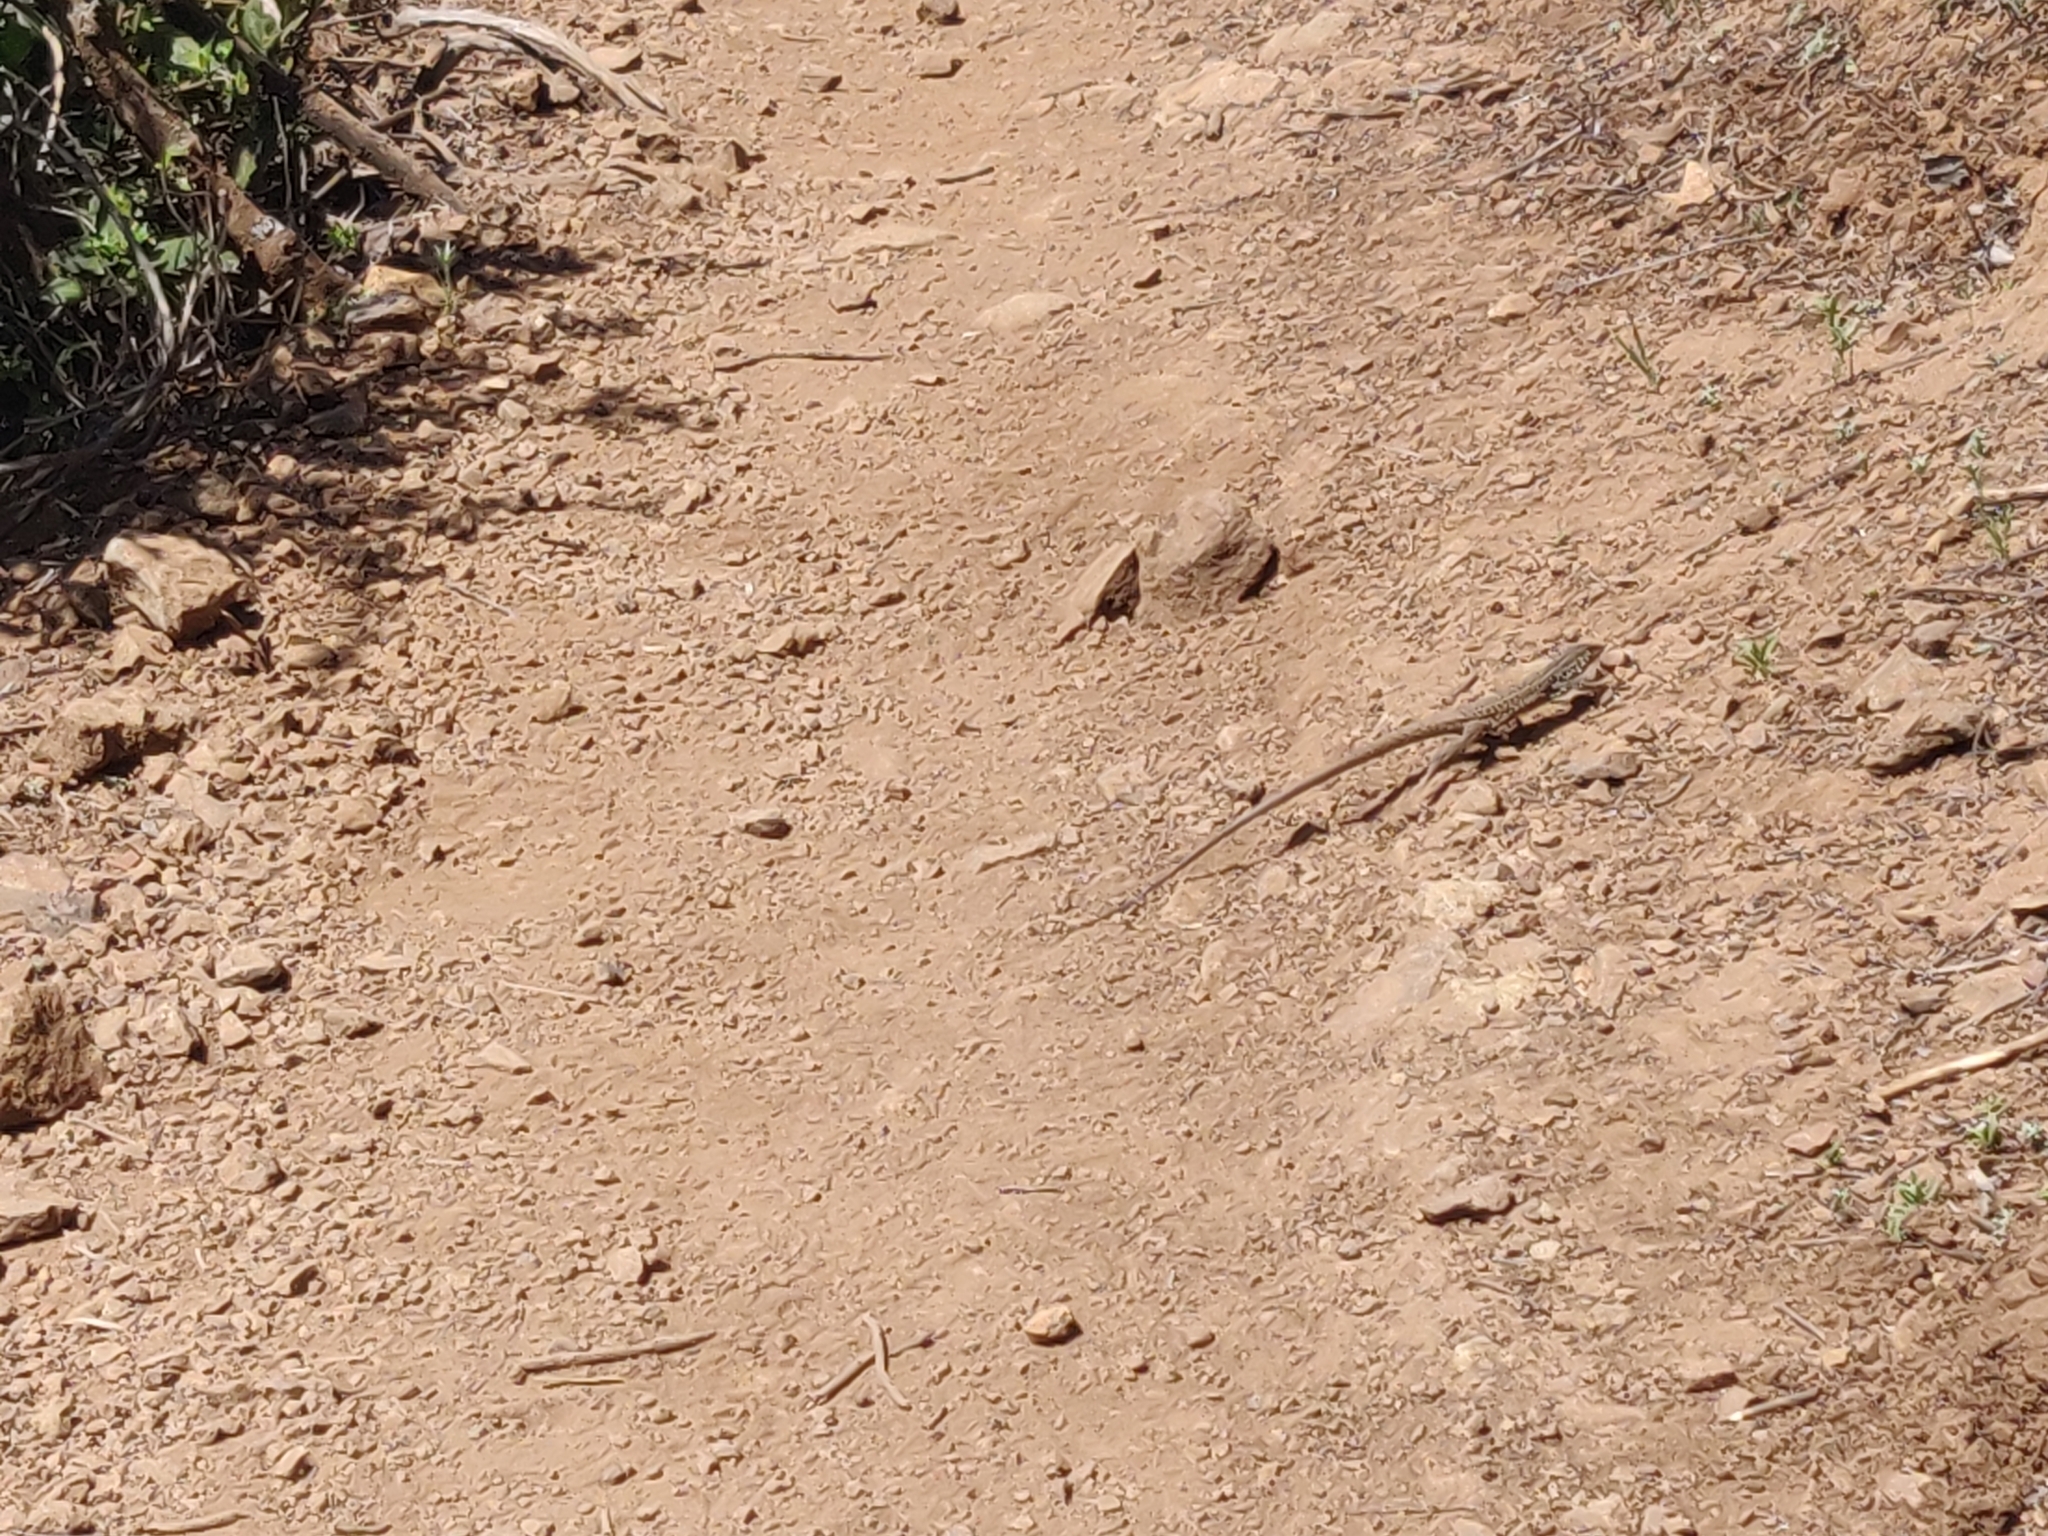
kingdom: Animalia
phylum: Chordata
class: Squamata
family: Teiidae
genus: Aspidoscelis
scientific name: Aspidoscelis tigris
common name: Tiger whiptail
